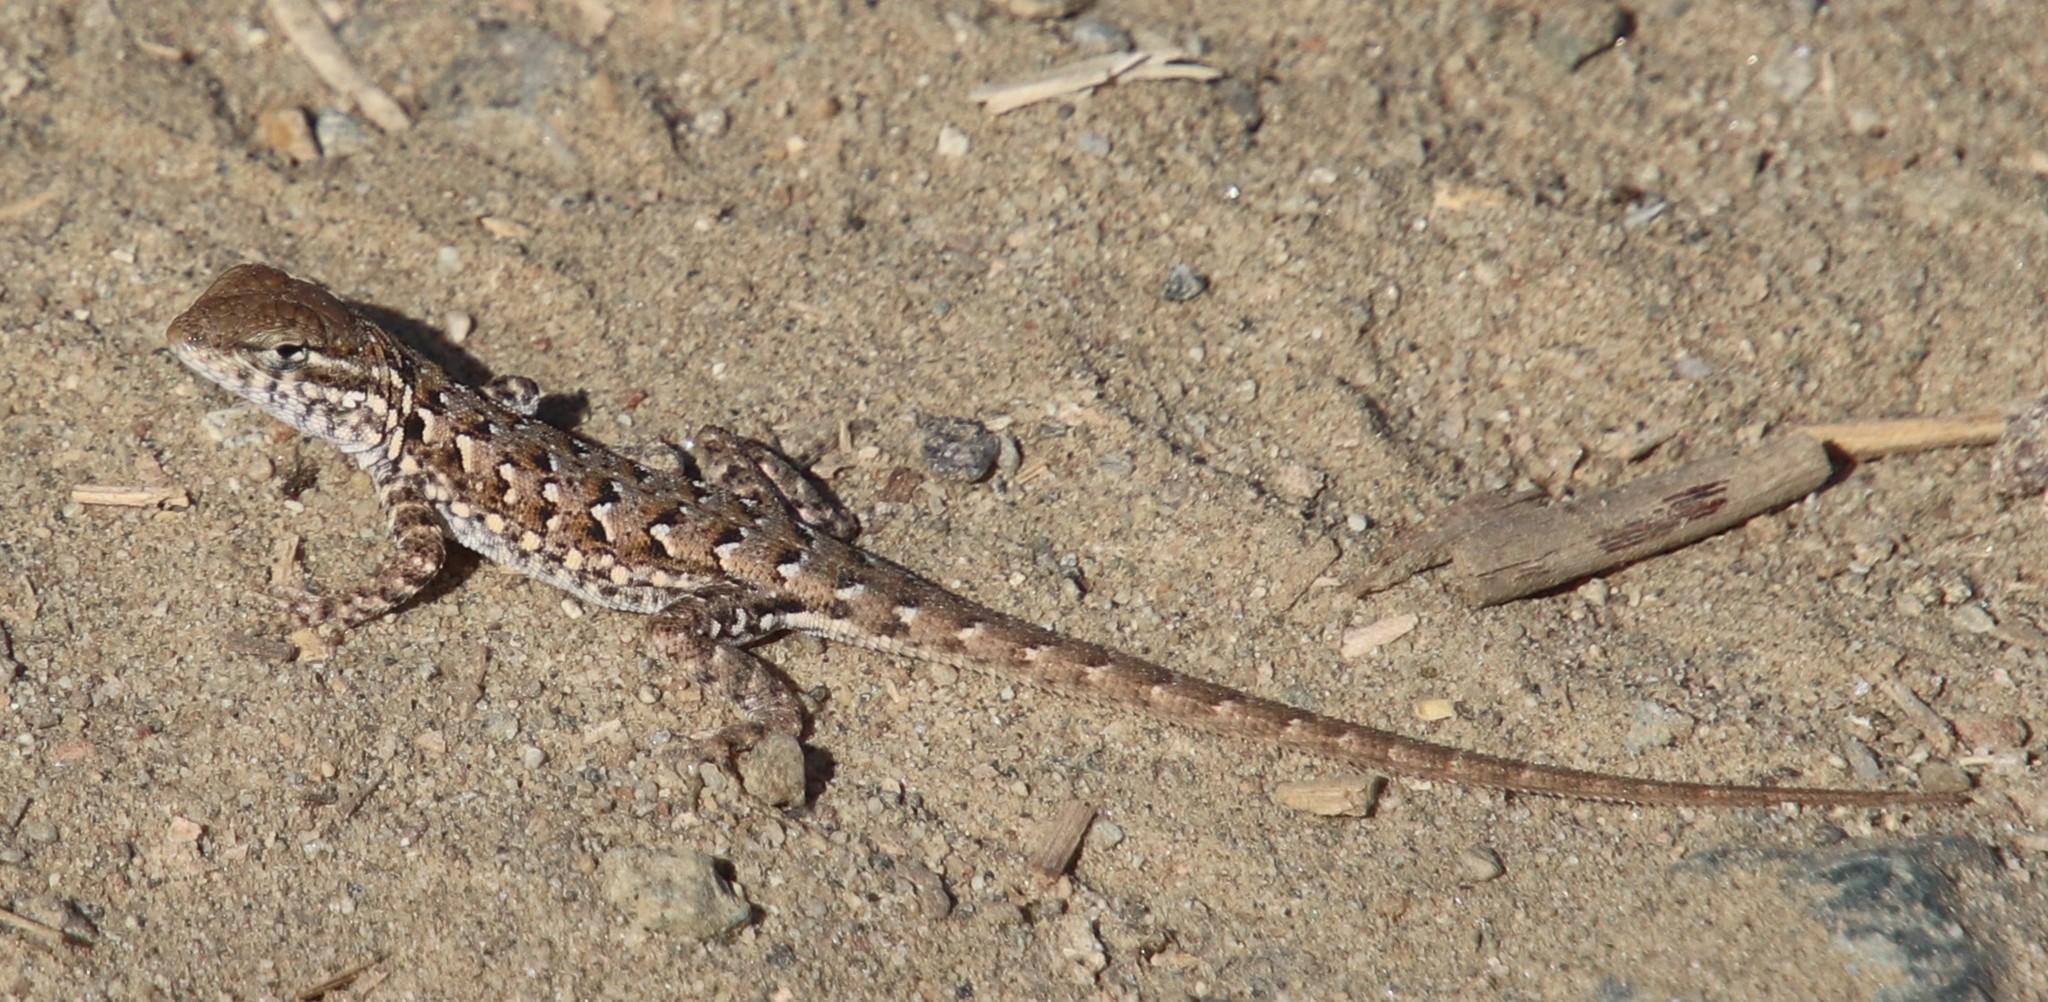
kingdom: Animalia
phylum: Chordata
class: Squamata
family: Phrynosomatidae
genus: Uta
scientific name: Uta stansburiana
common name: Side-blotched lizard
